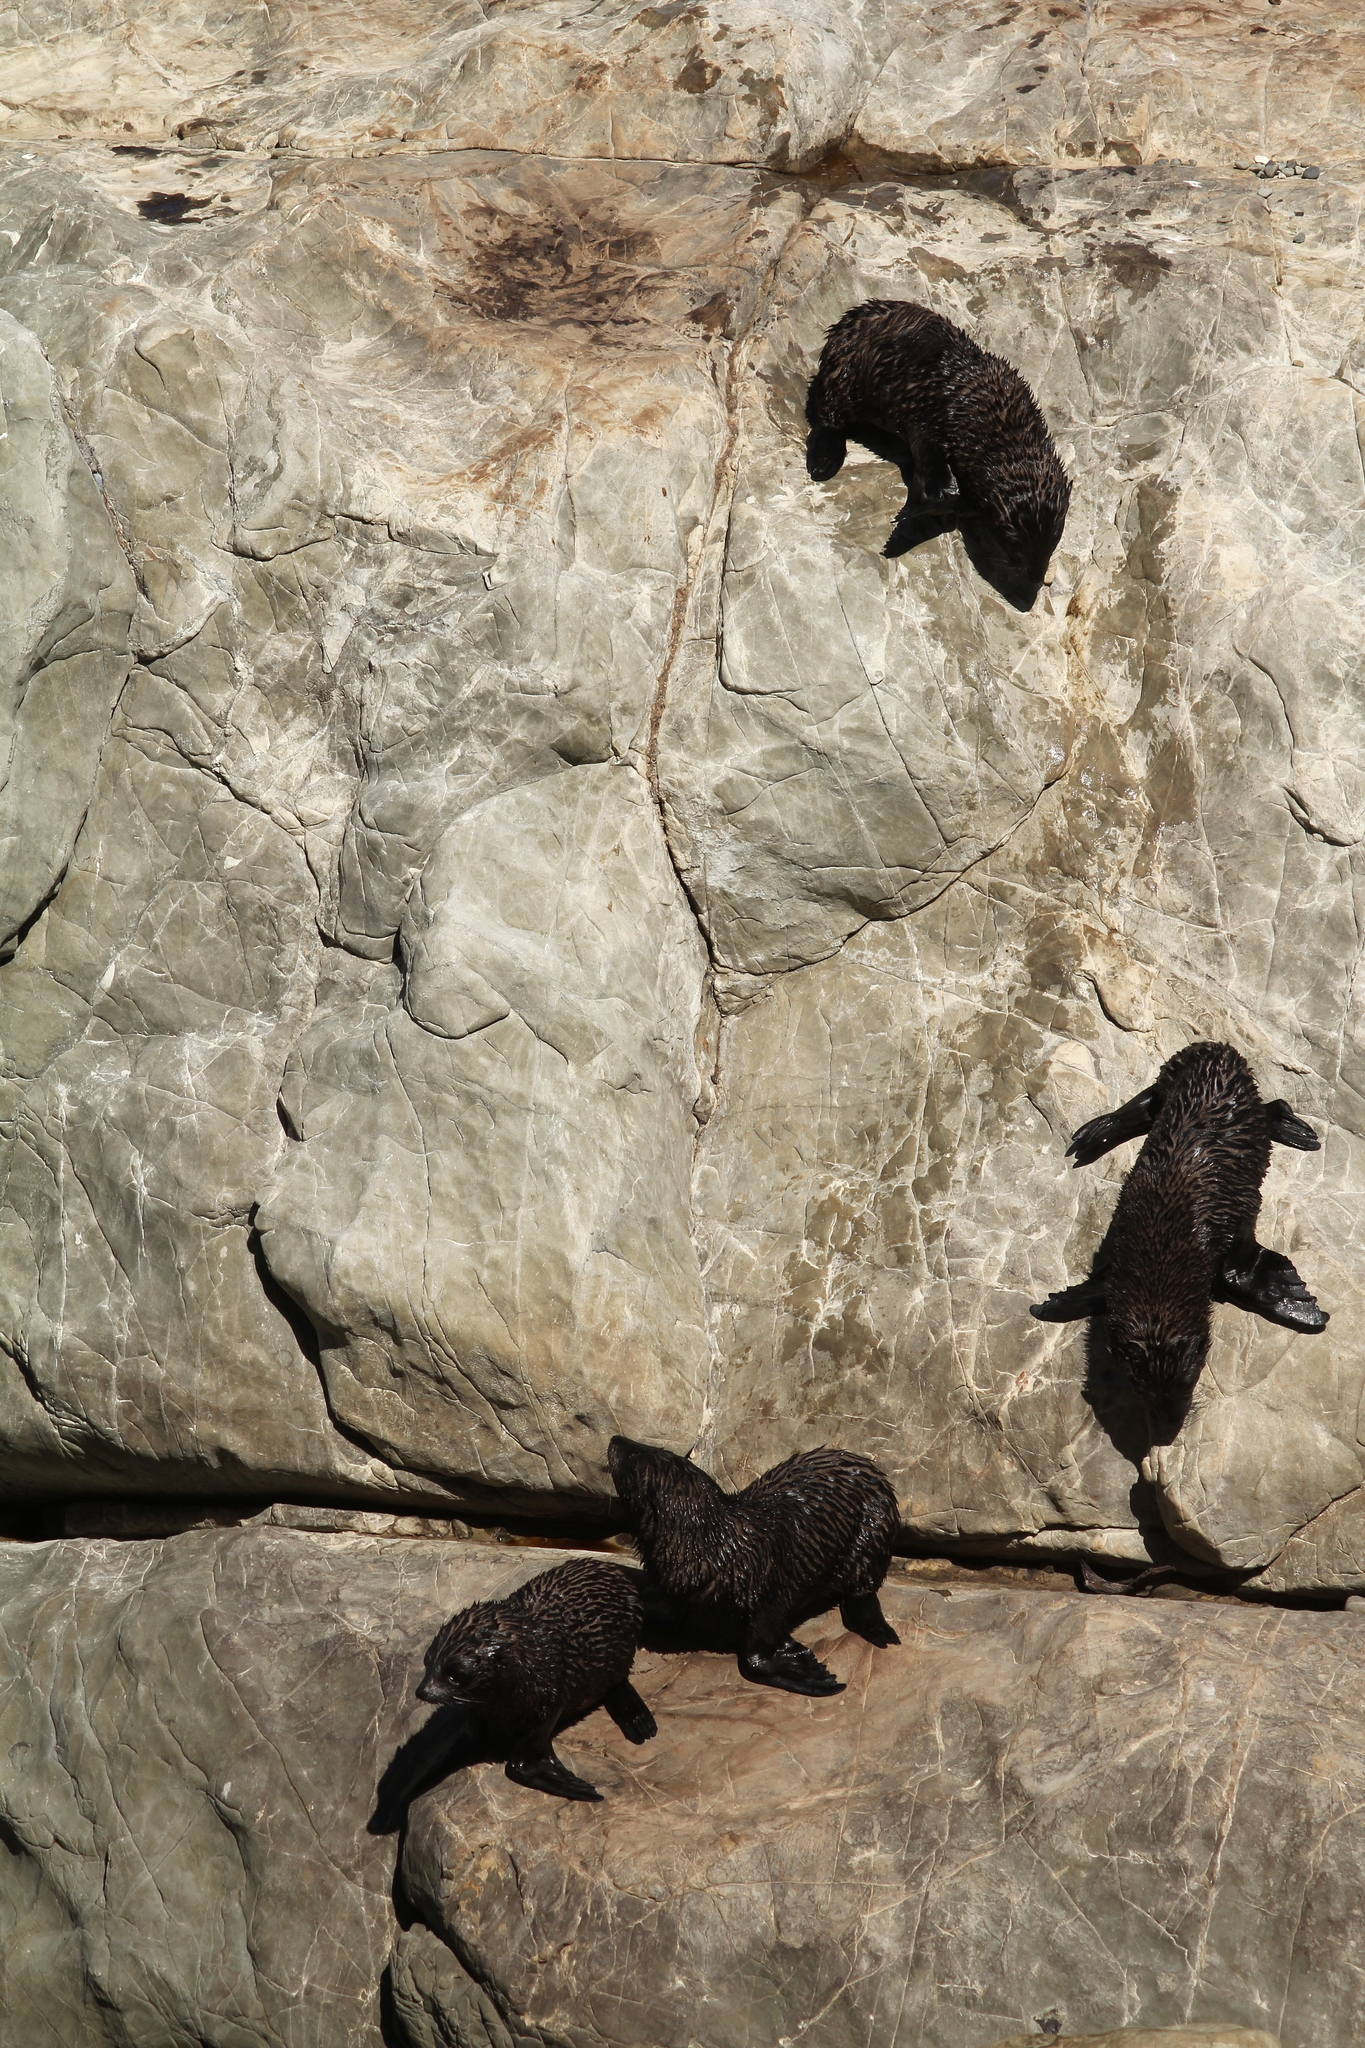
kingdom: Animalia
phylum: Chordata
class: Mammalia
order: Carnivora
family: Otariidae
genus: Arctocephalus
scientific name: Arctocephalus forsteri
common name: New zealand fur seal
